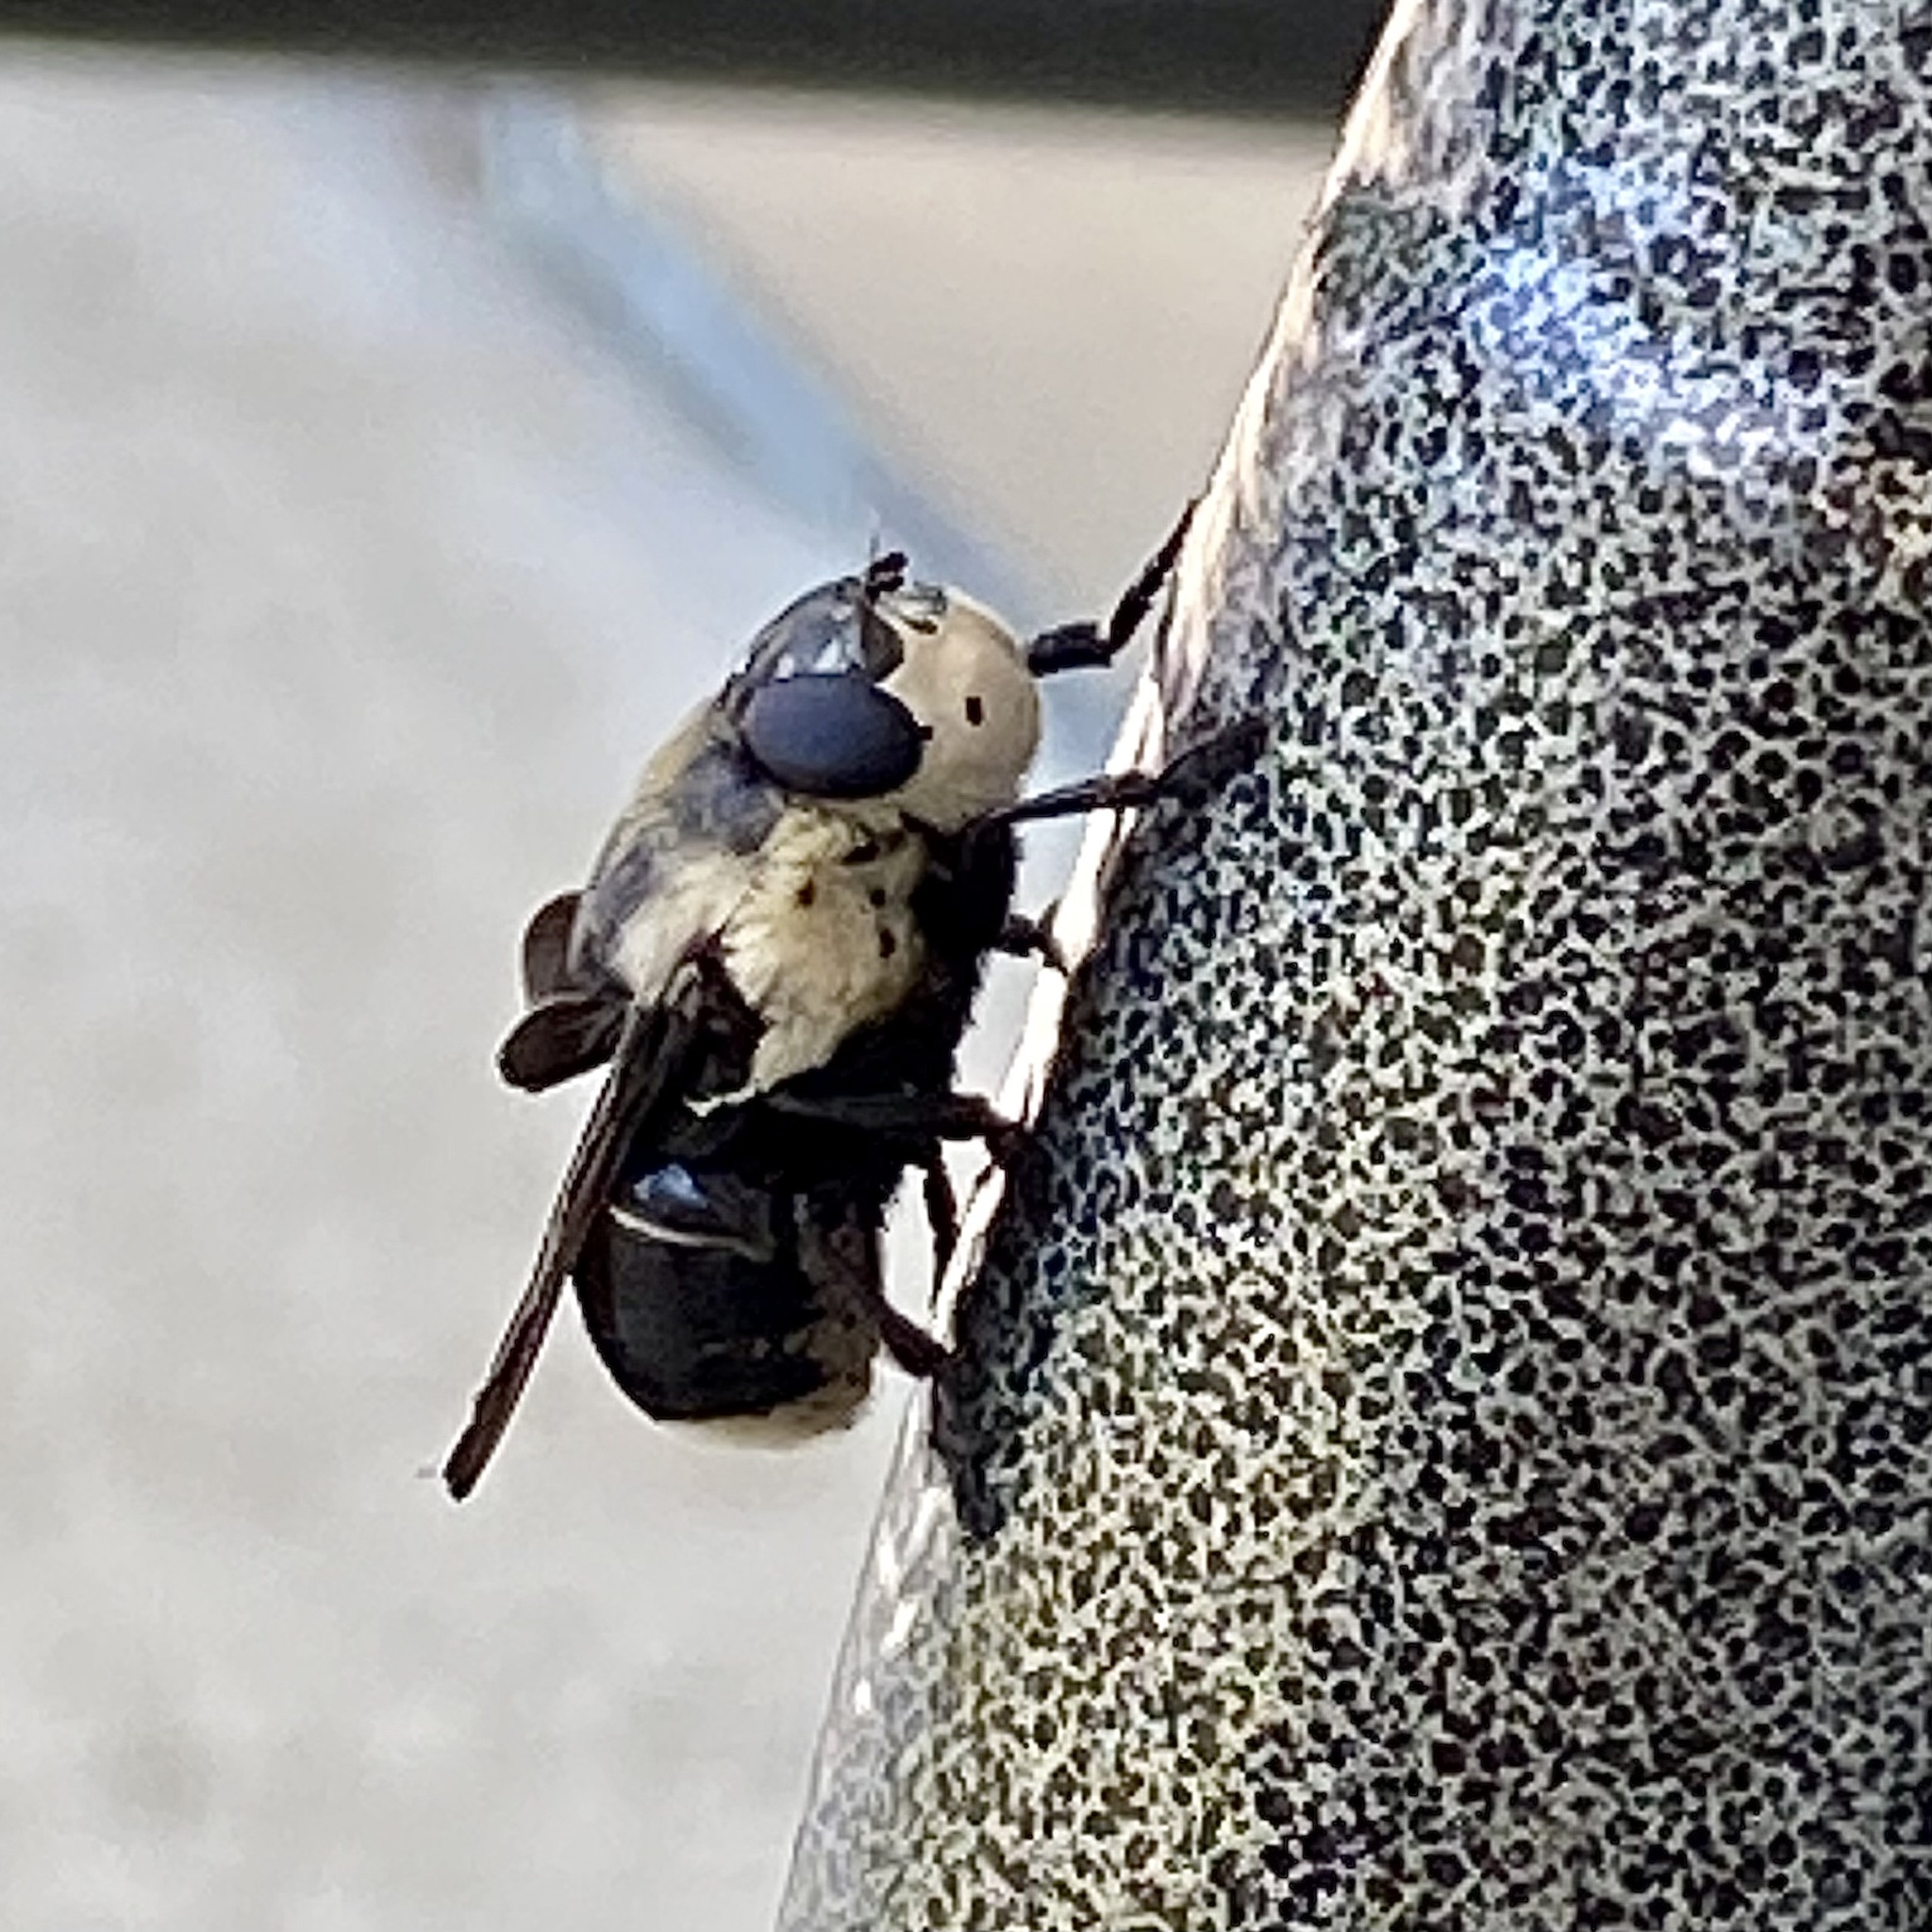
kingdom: Animalia
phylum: Arthropoda
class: Insecta
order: Diptera
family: Oestridae
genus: Cuterebra
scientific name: Cuterebra fontinella
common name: Mouse bot fly
